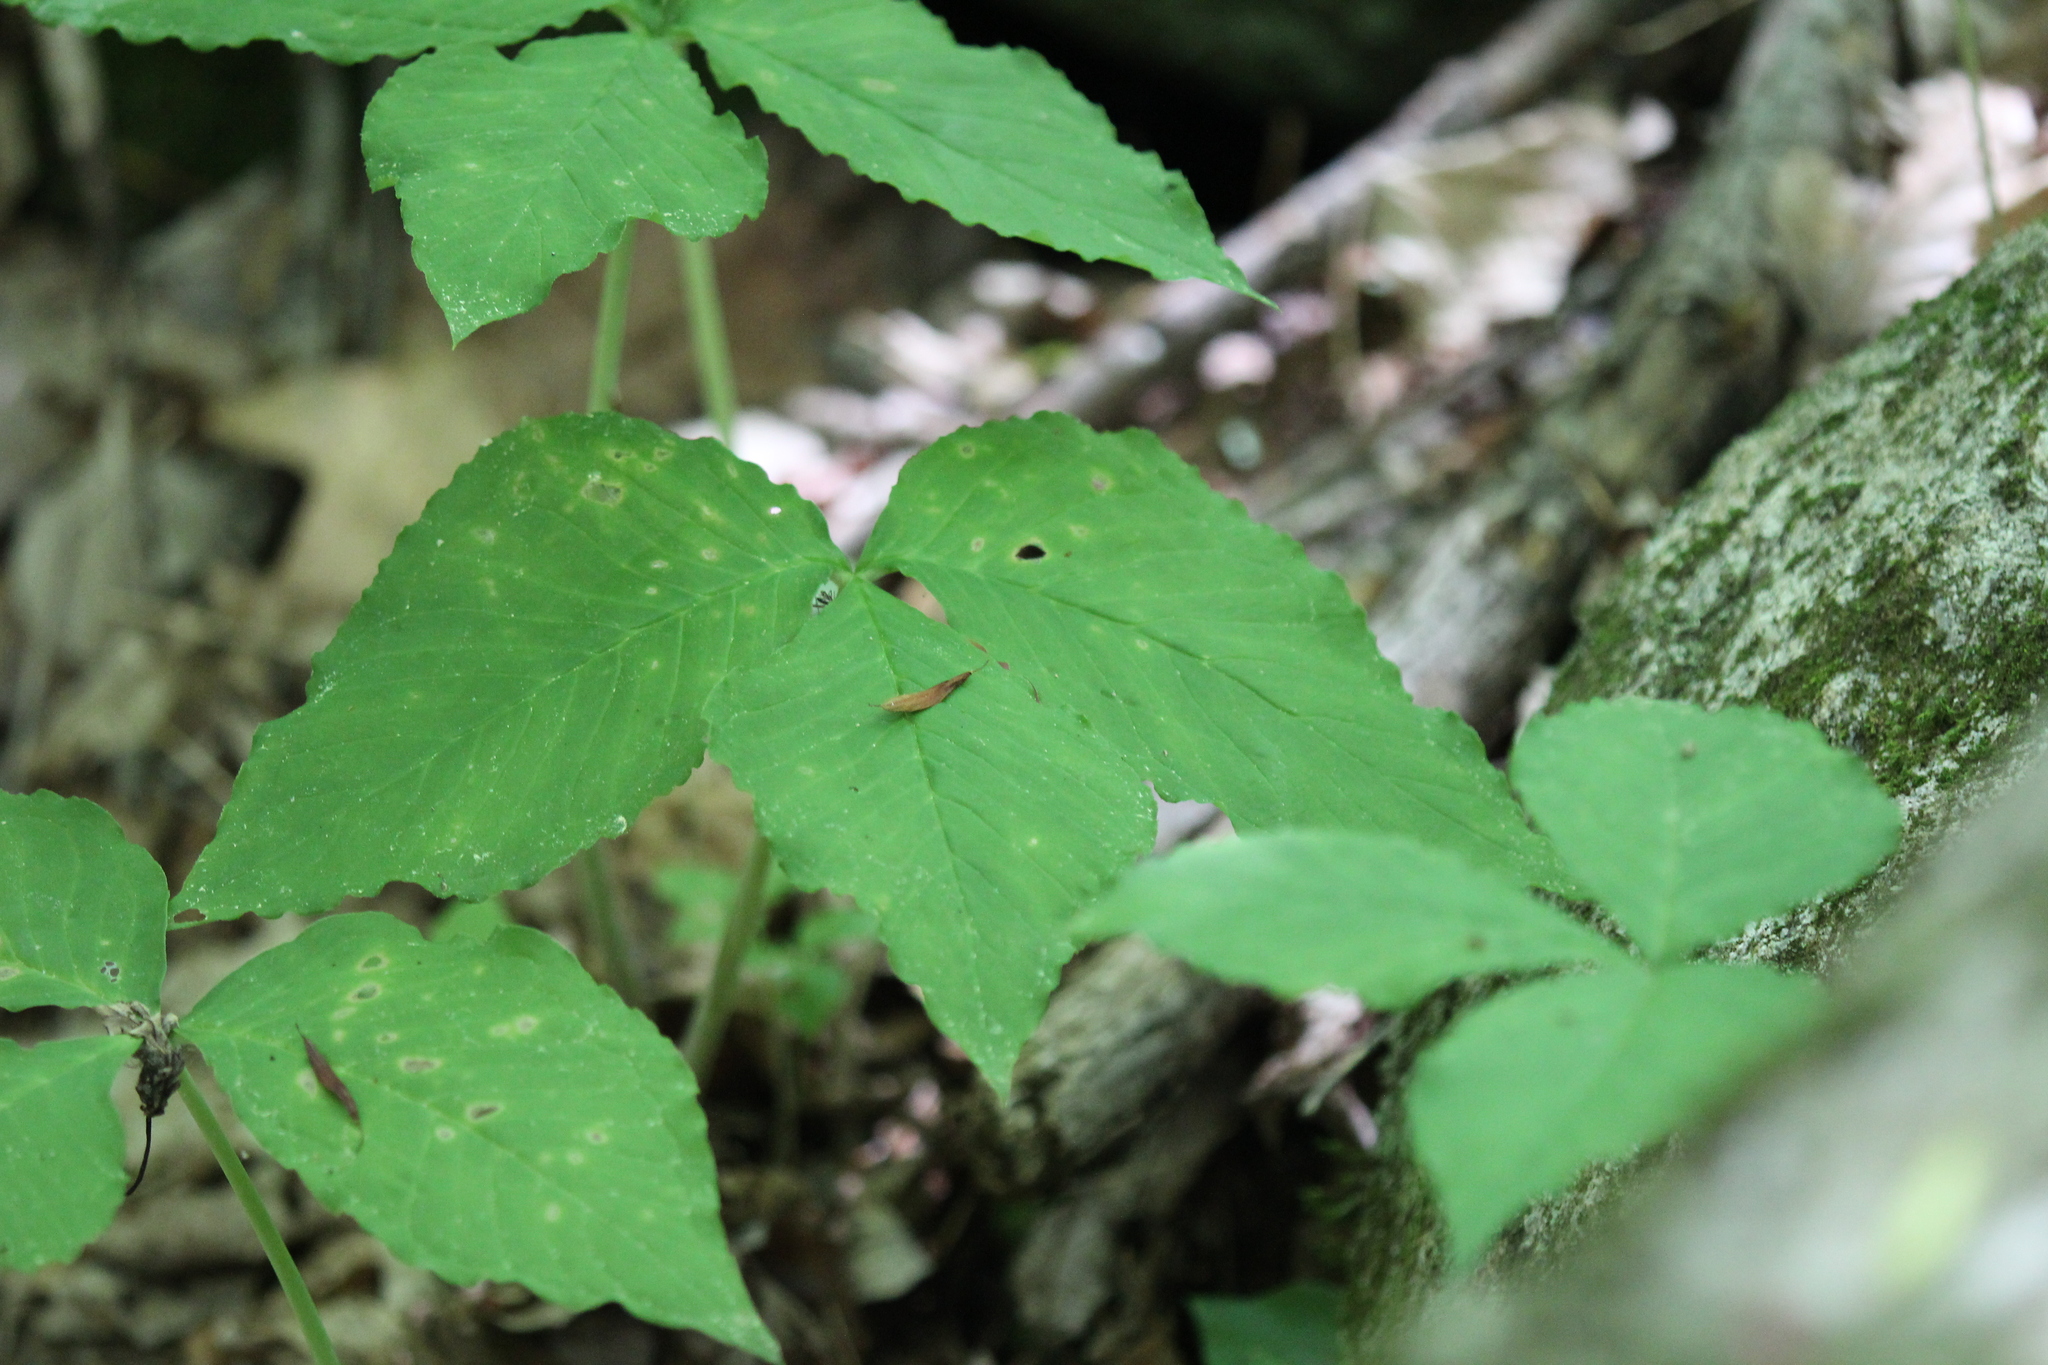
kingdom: Plantae
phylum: Tracheophyta
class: Liliopsida
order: Alismatales
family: Araceae
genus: Arisaema
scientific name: Arisaema triphyllum
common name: Jack-in-the-pulpit
